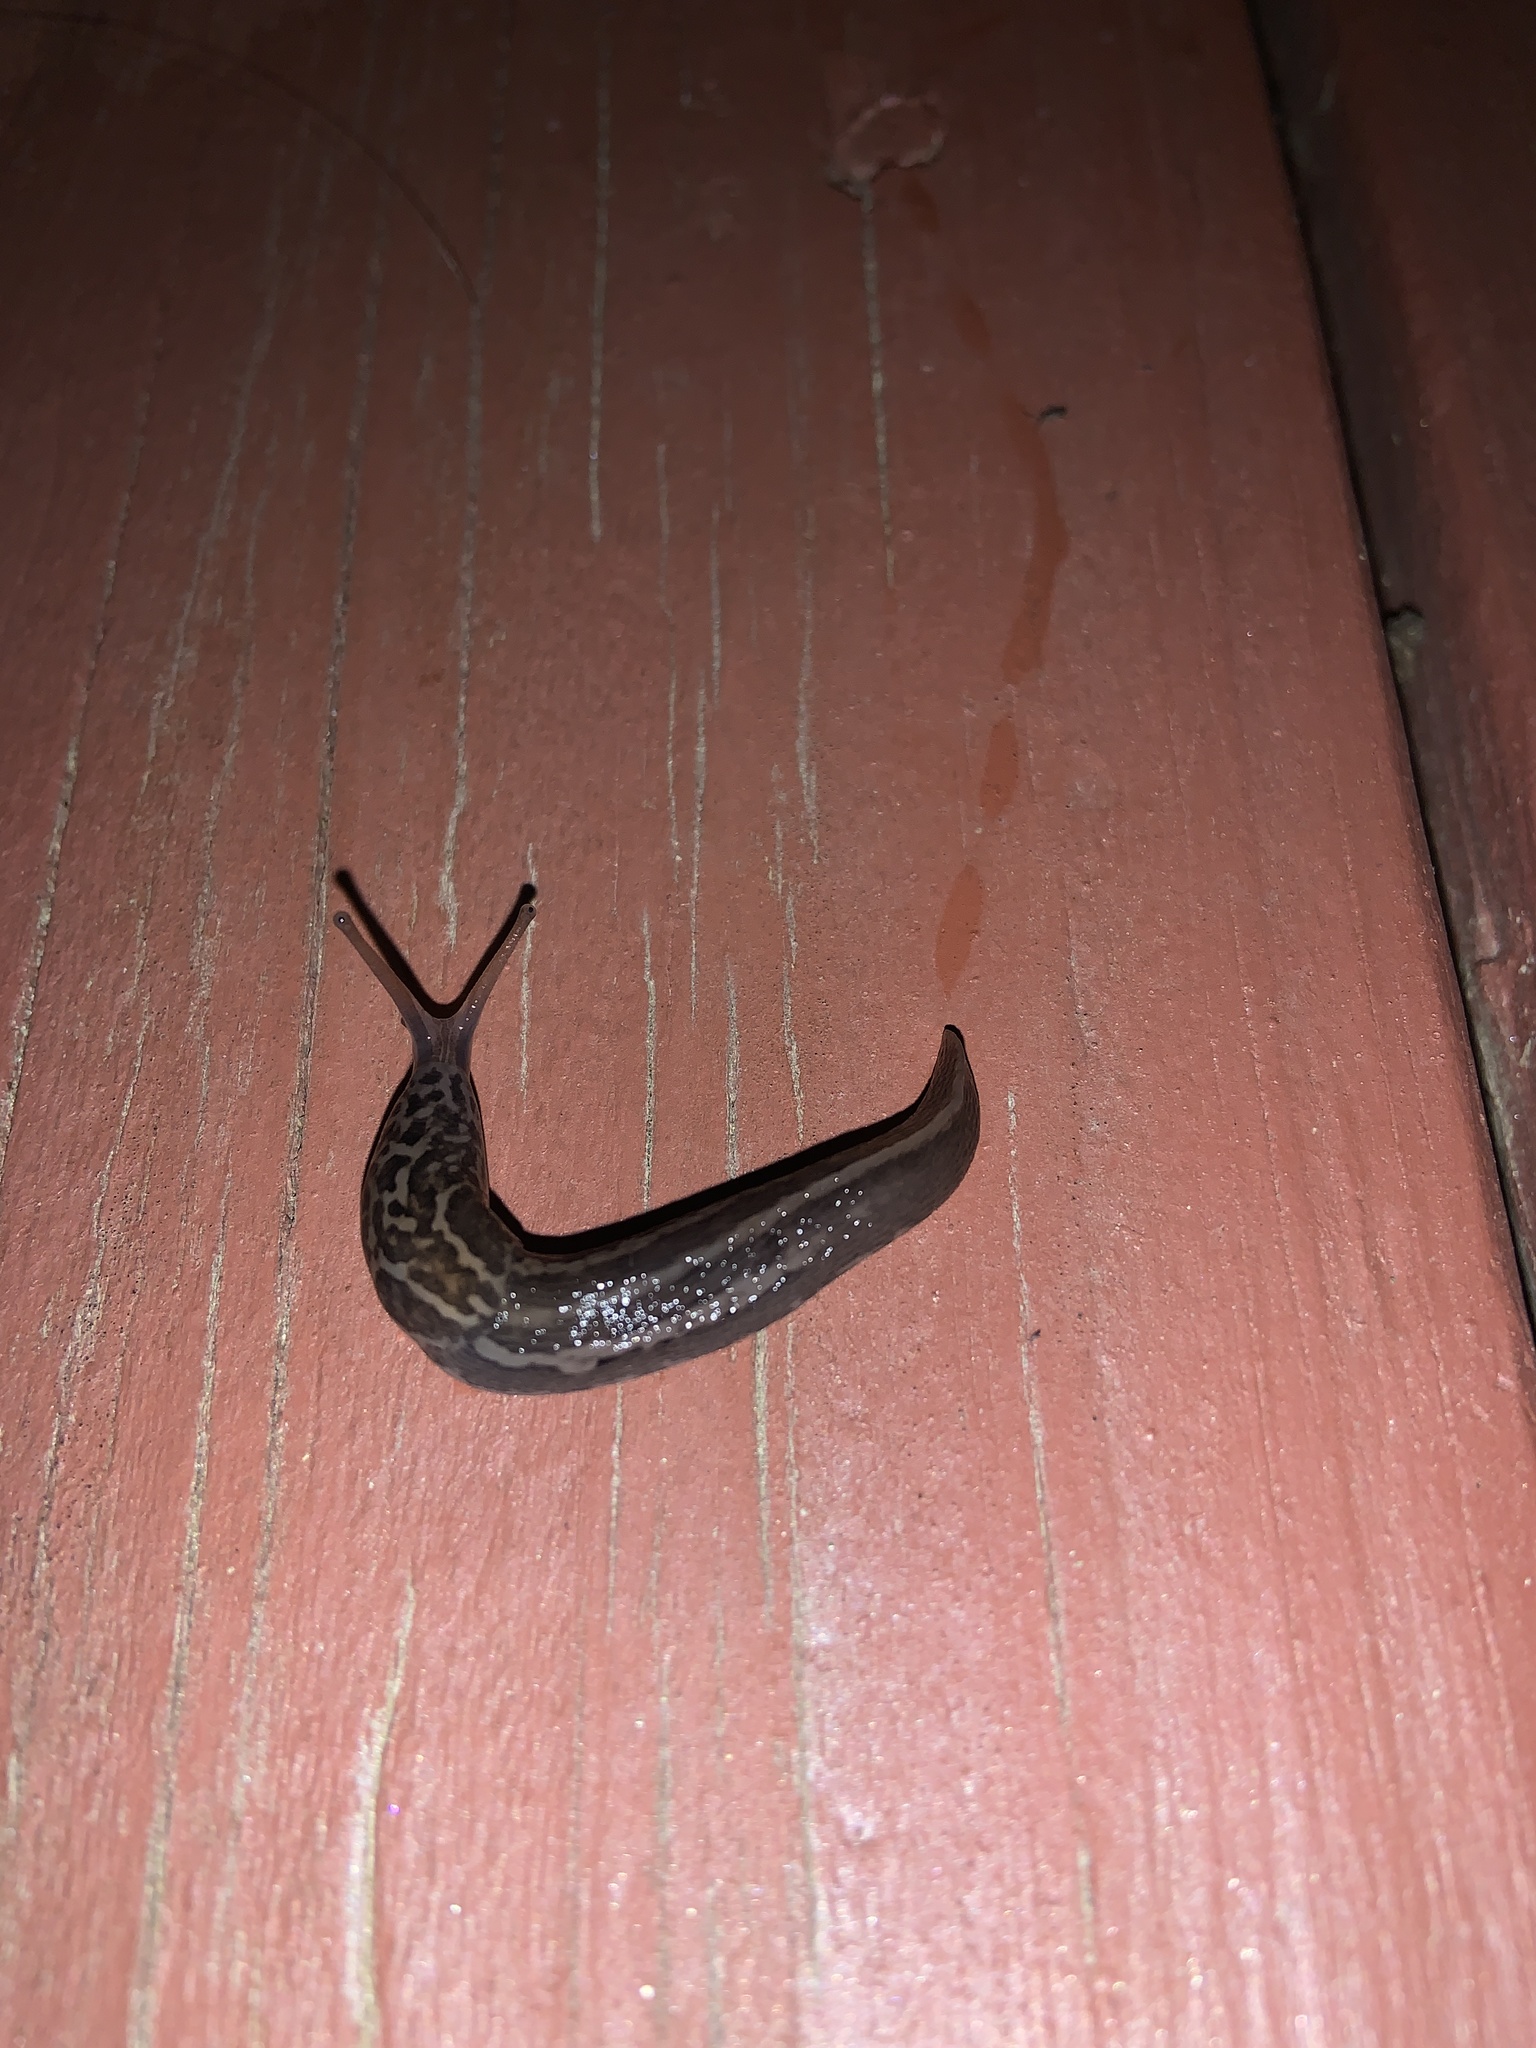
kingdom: Animalia
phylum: Mollusca
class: Gastropoda
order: Stylommatophora
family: Limacidae
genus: Limax
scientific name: Limax maximus
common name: Great grey slug
